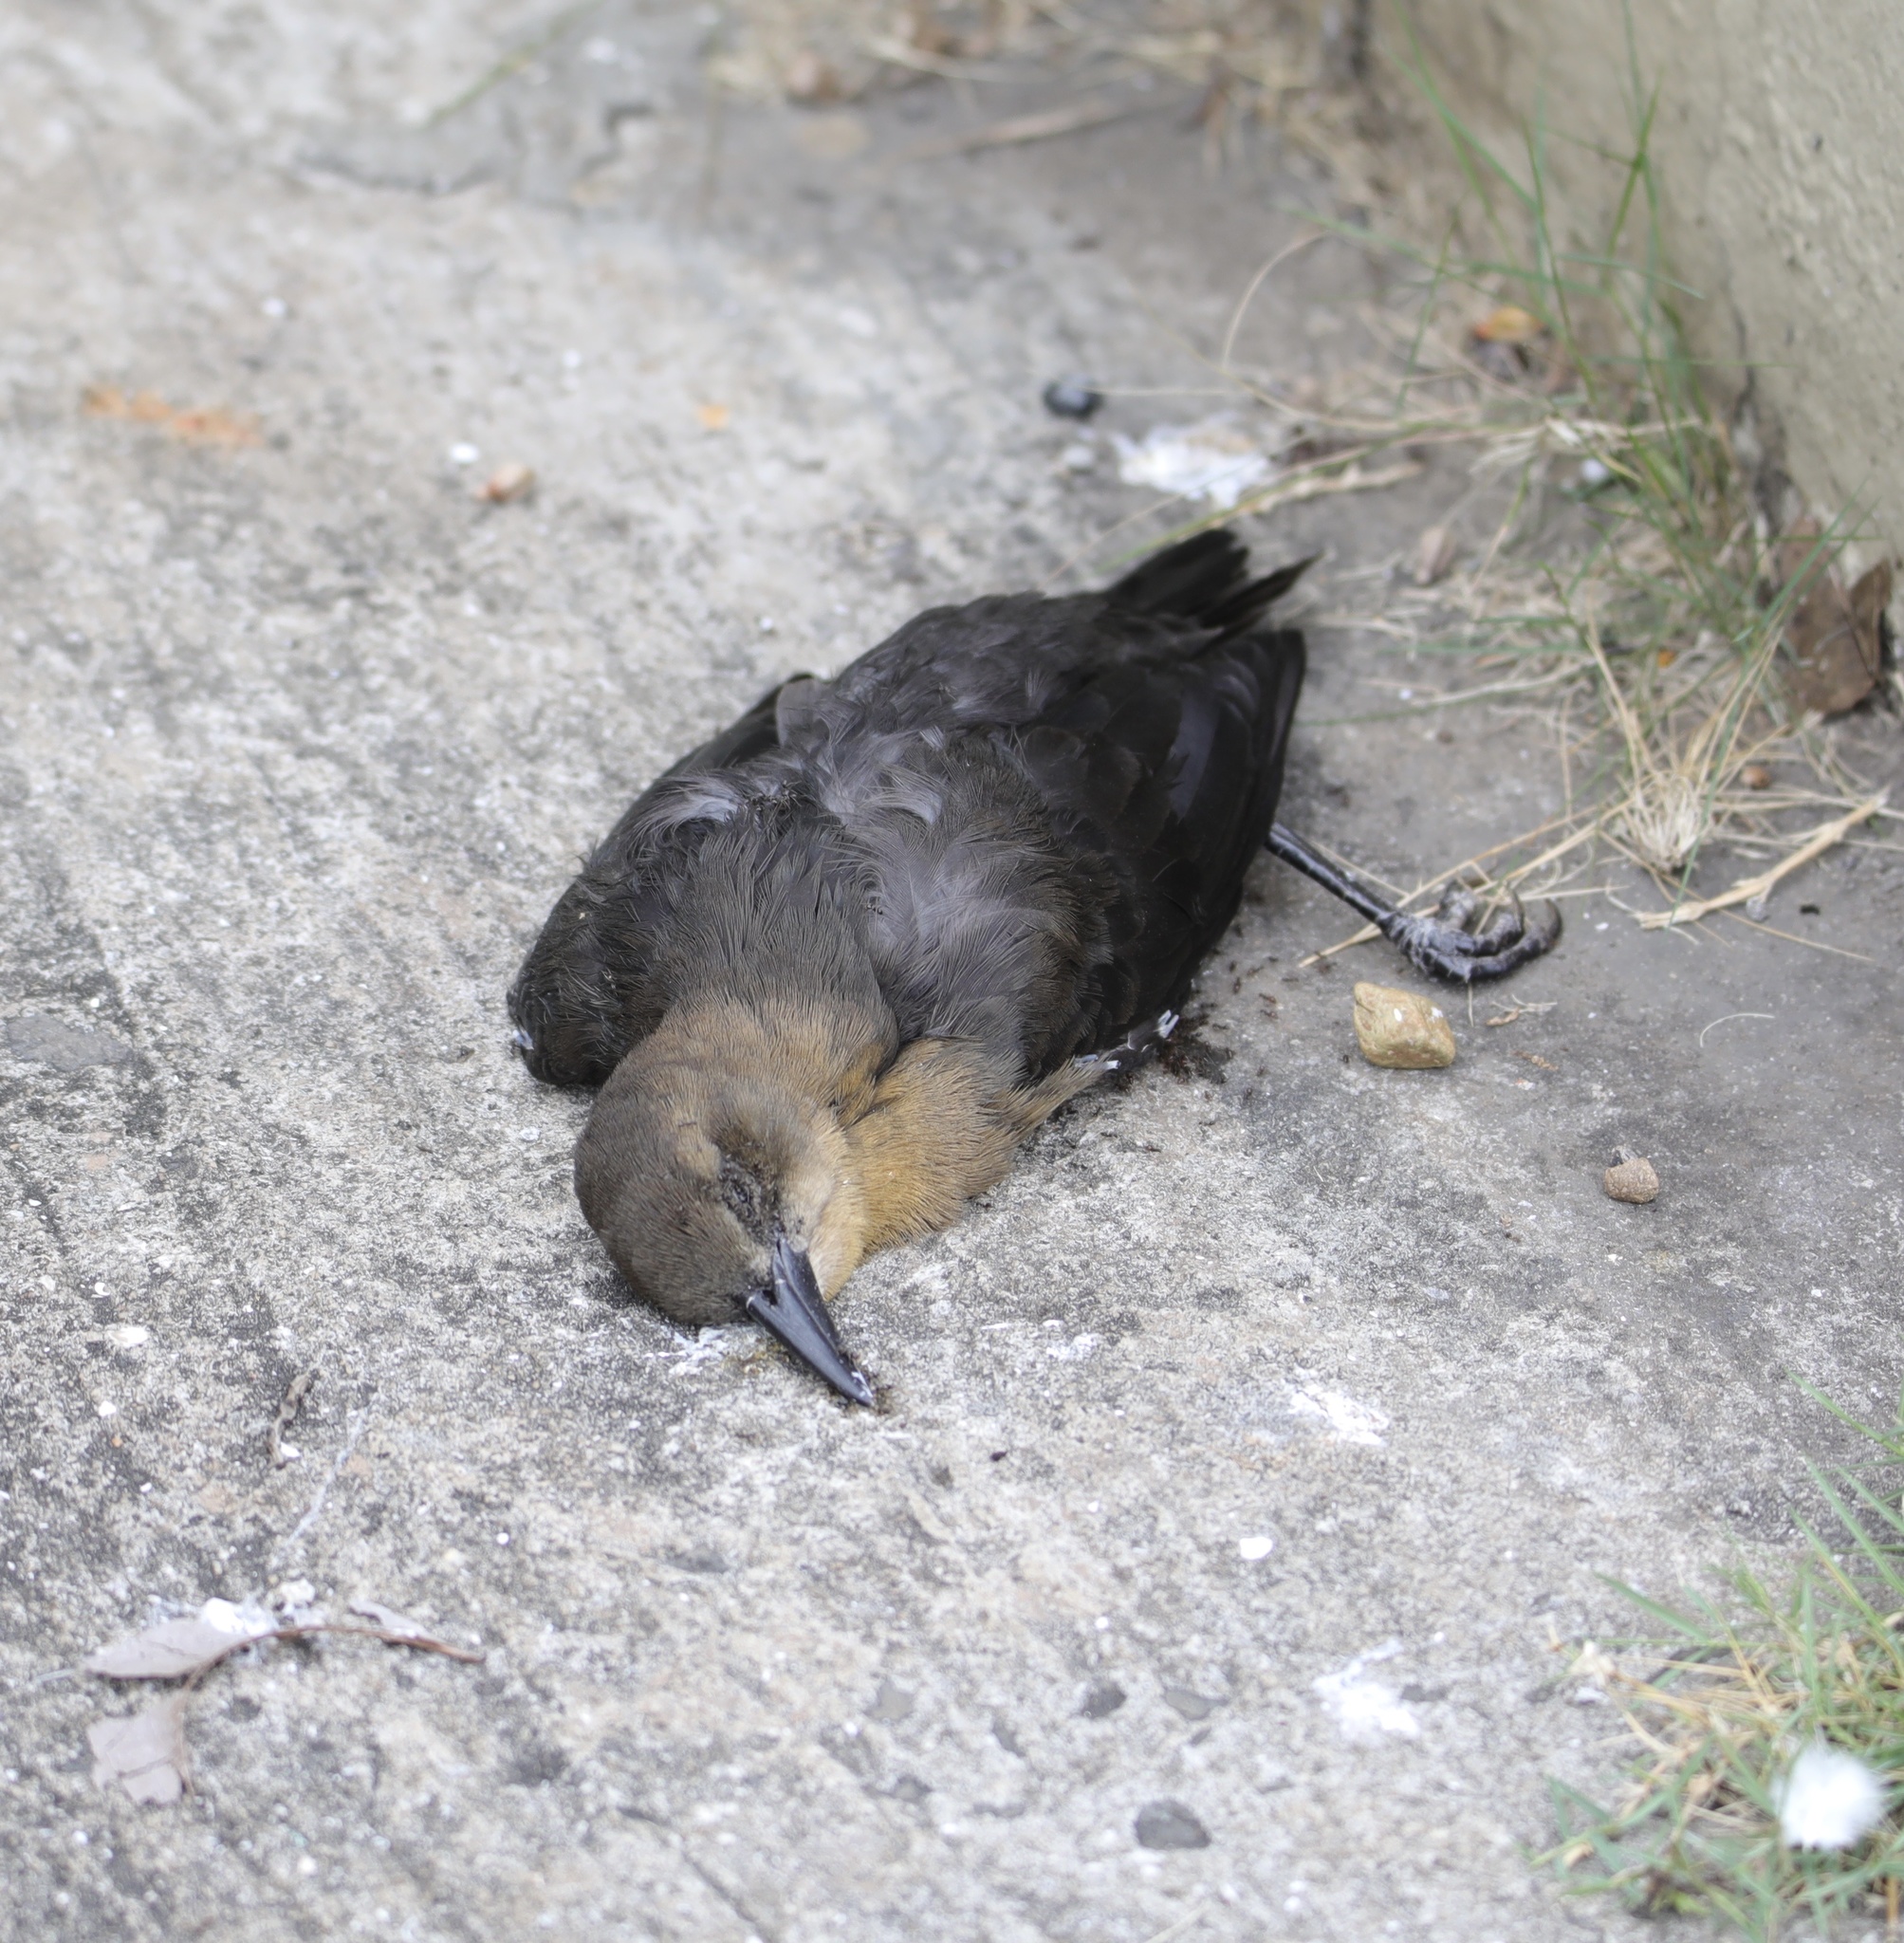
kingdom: Animalia
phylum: Chordata
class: Aves
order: Passeriformes
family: Icteridae
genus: Quiscalus
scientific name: Quiscalus mexicanus
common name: Great-tailed grackle
